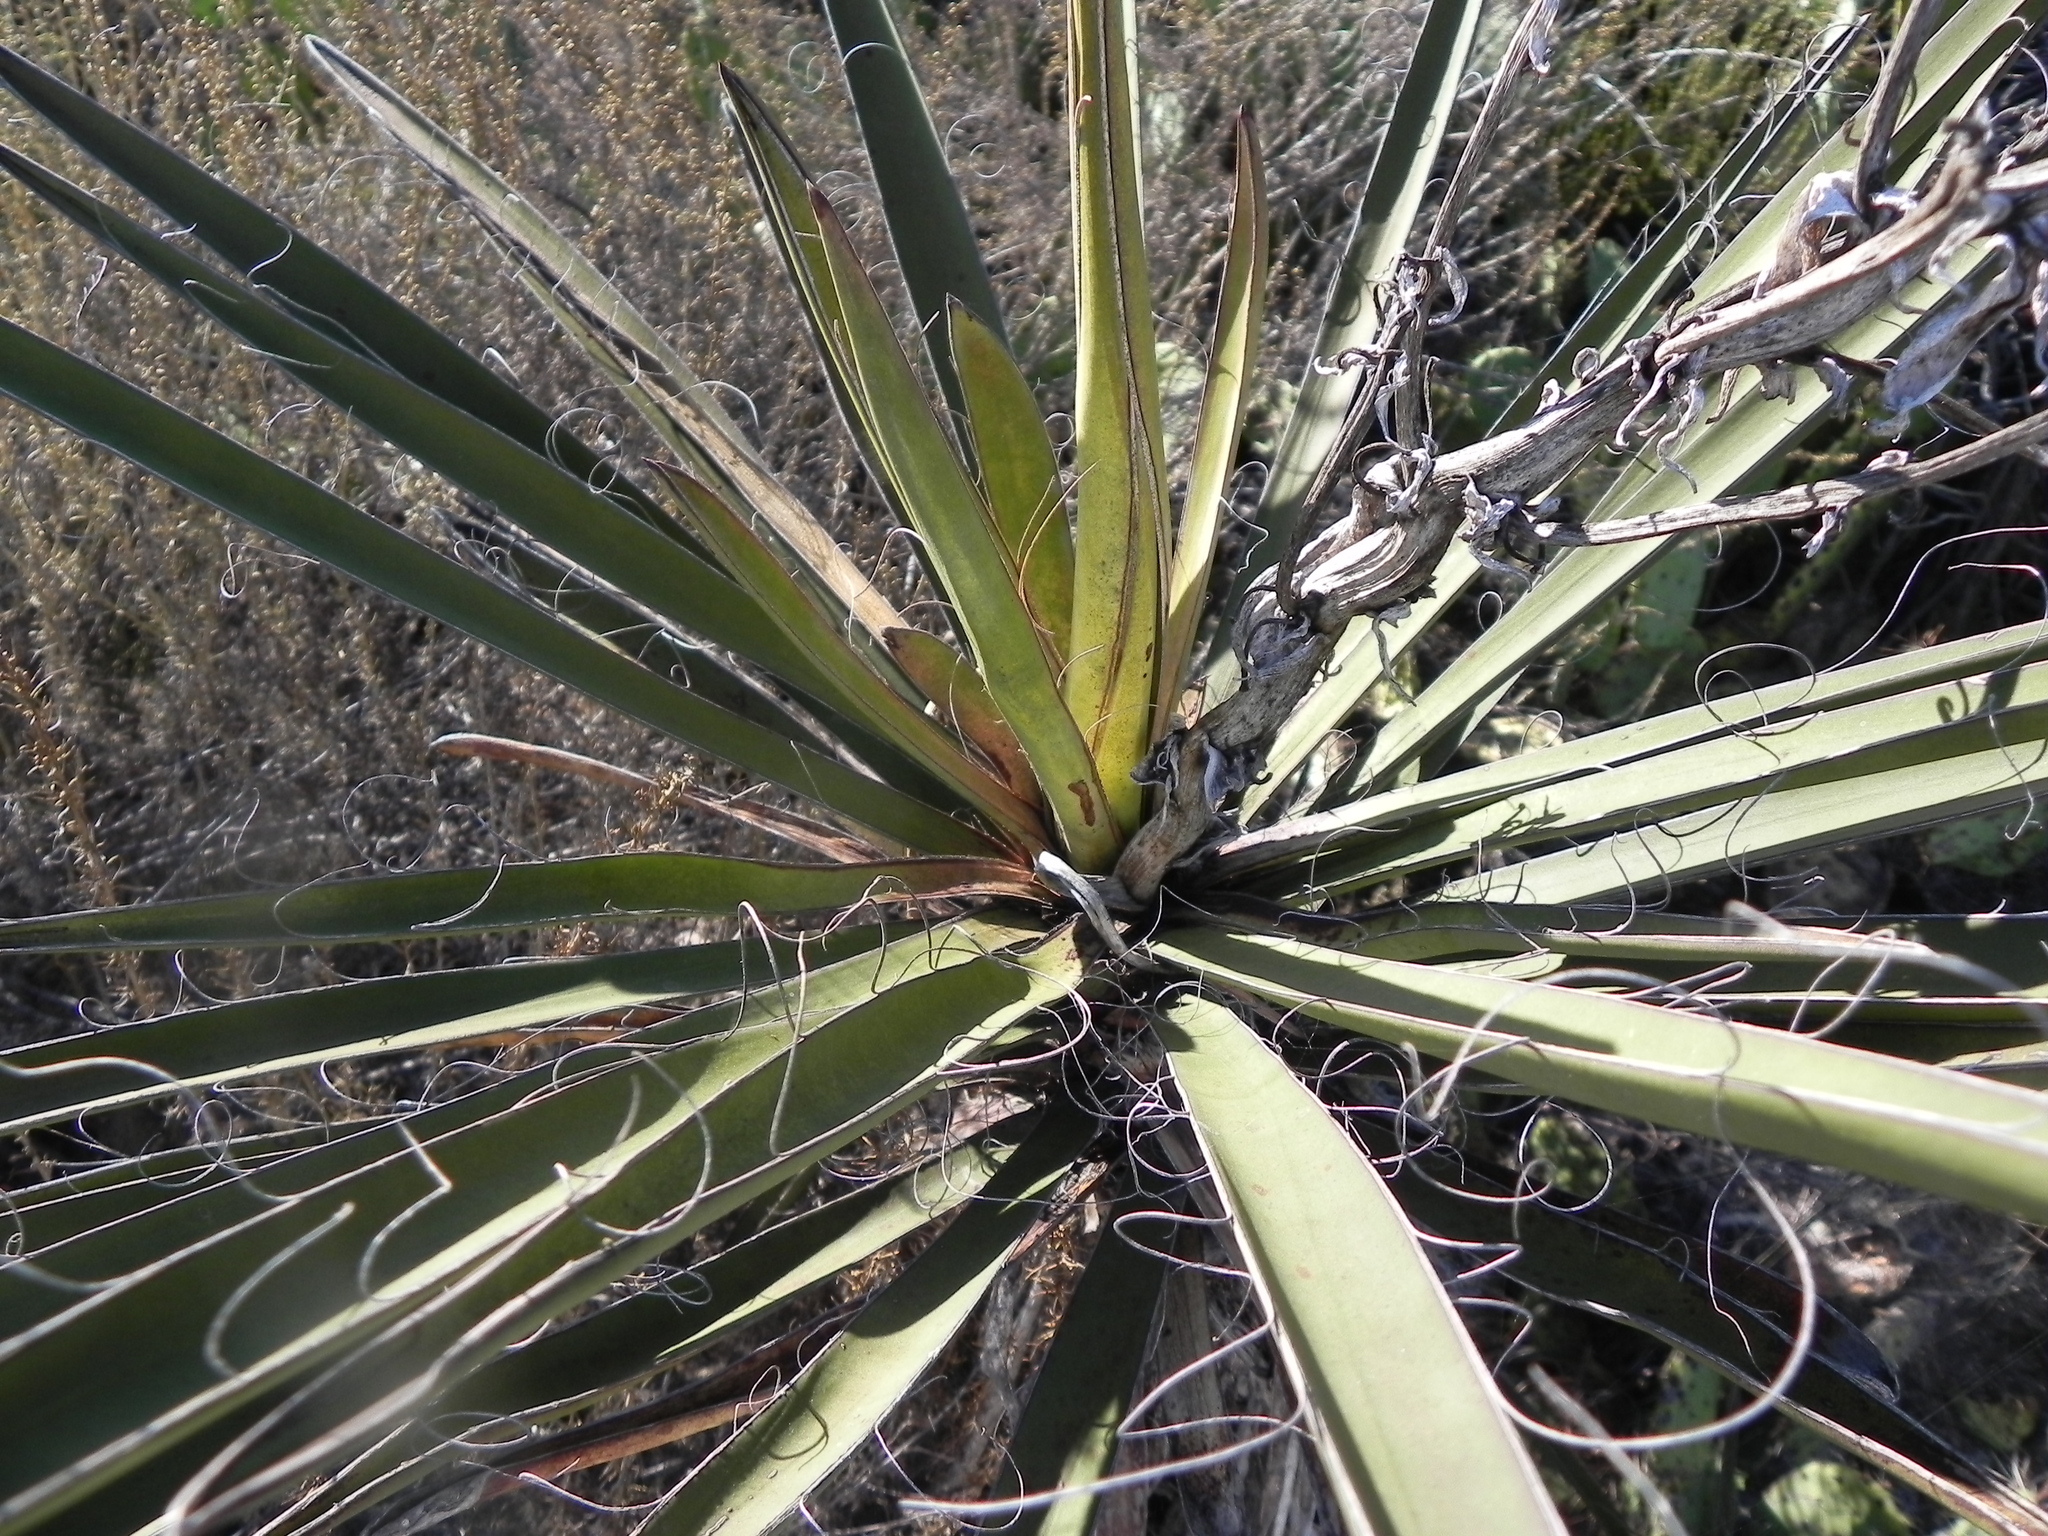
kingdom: Plantae
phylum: Tracheophyta
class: Liliopsida
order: Asparagales
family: Asparagaceae
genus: Yucca
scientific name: Yucca schidigera
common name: Mojave yucca
